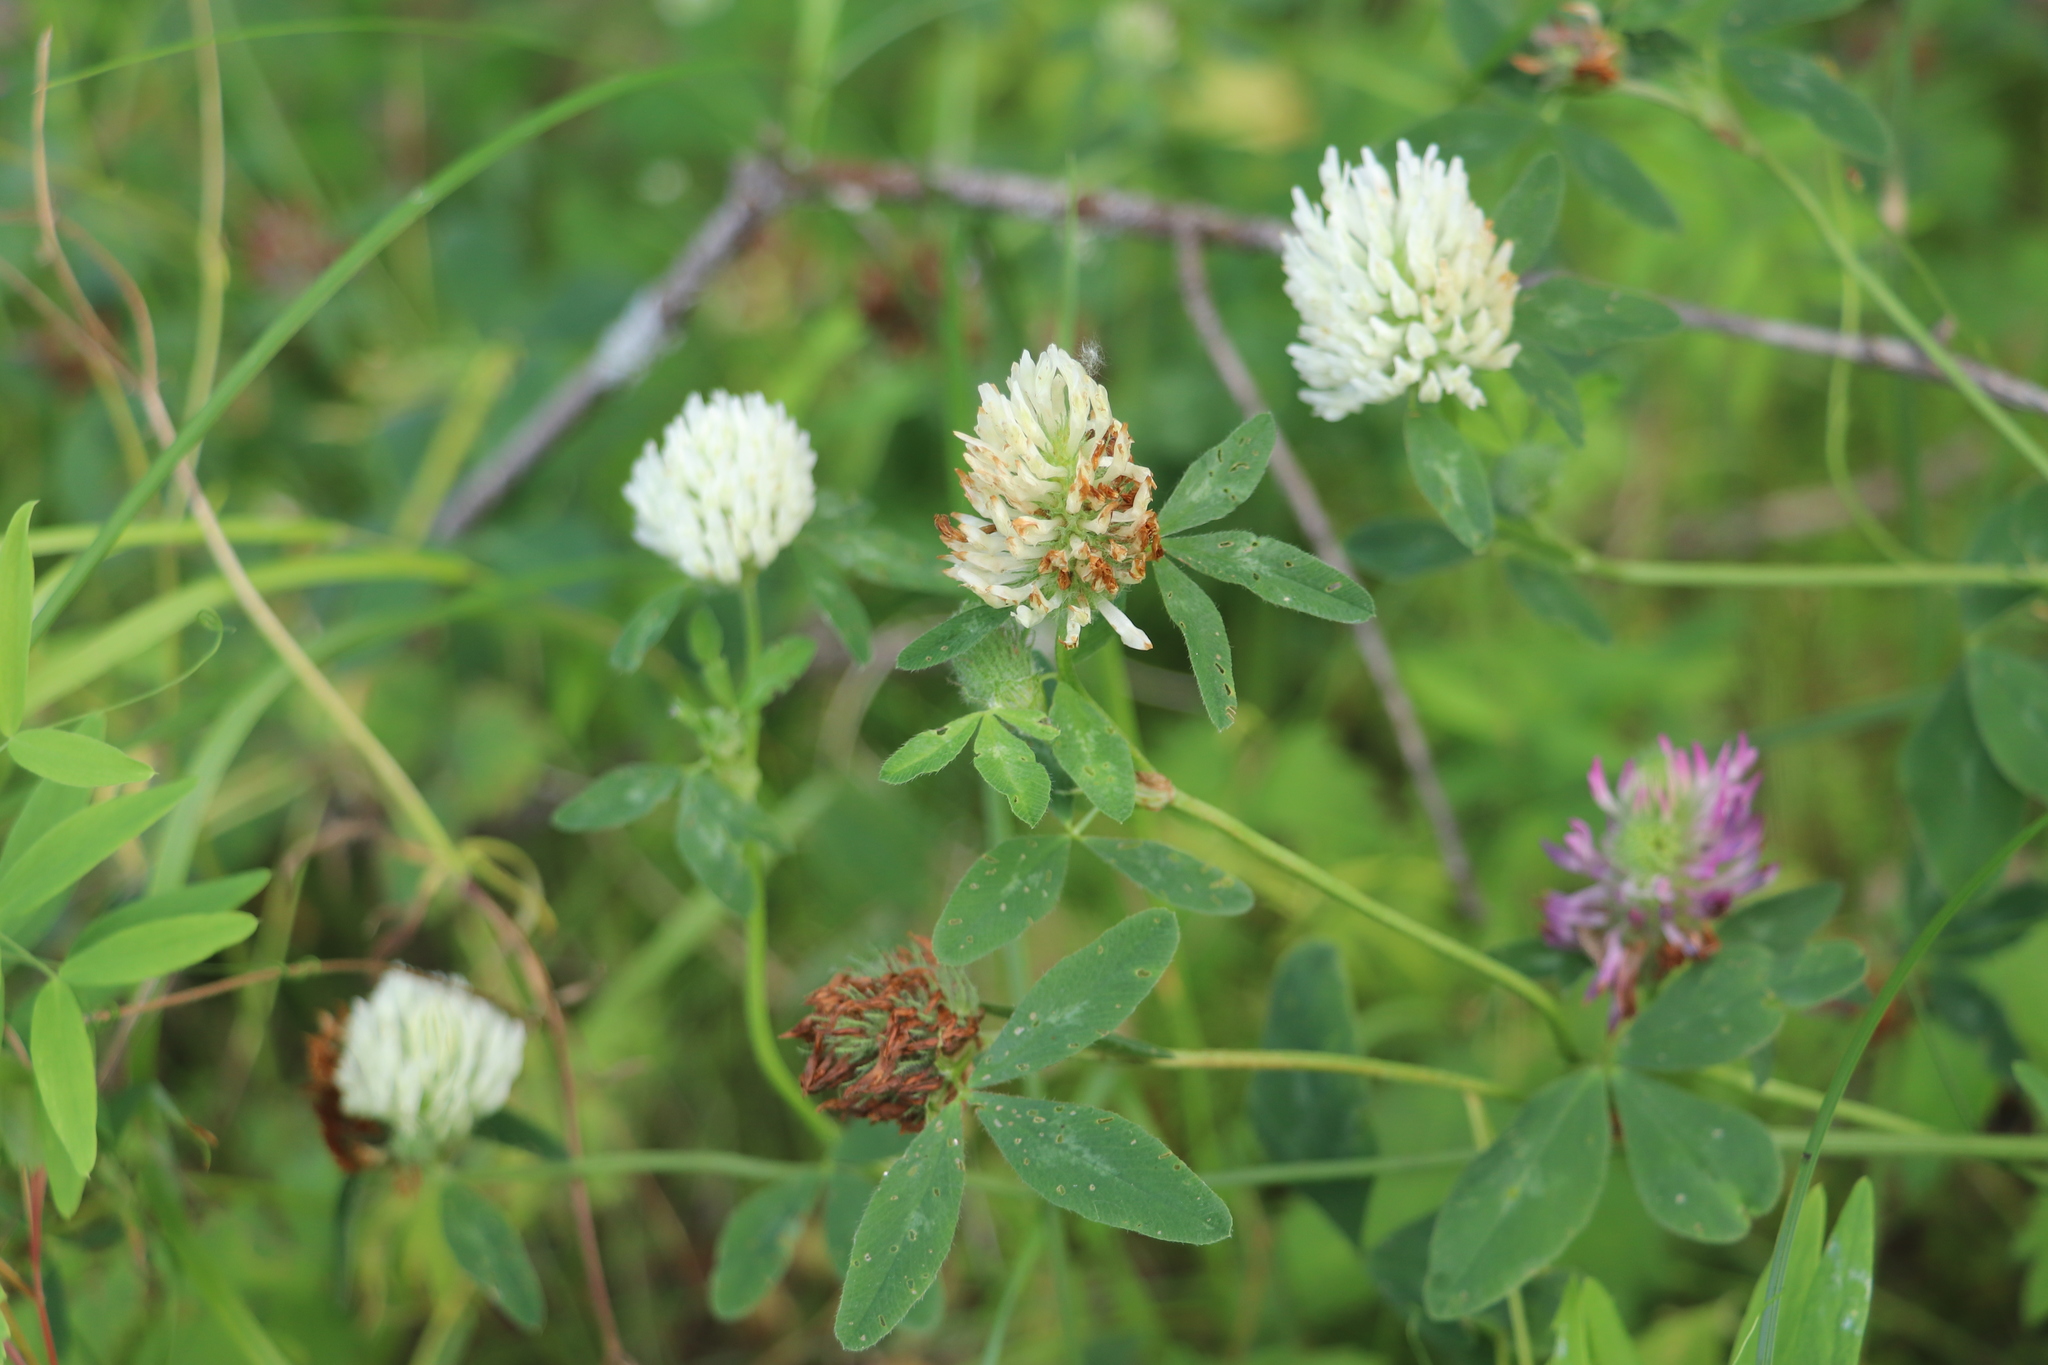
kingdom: Plantae
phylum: Tracheophyta
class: Magnoliopsida
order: Fabales
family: Fabaceae
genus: Trifolium
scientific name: Trifolium pratense
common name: Red clover
